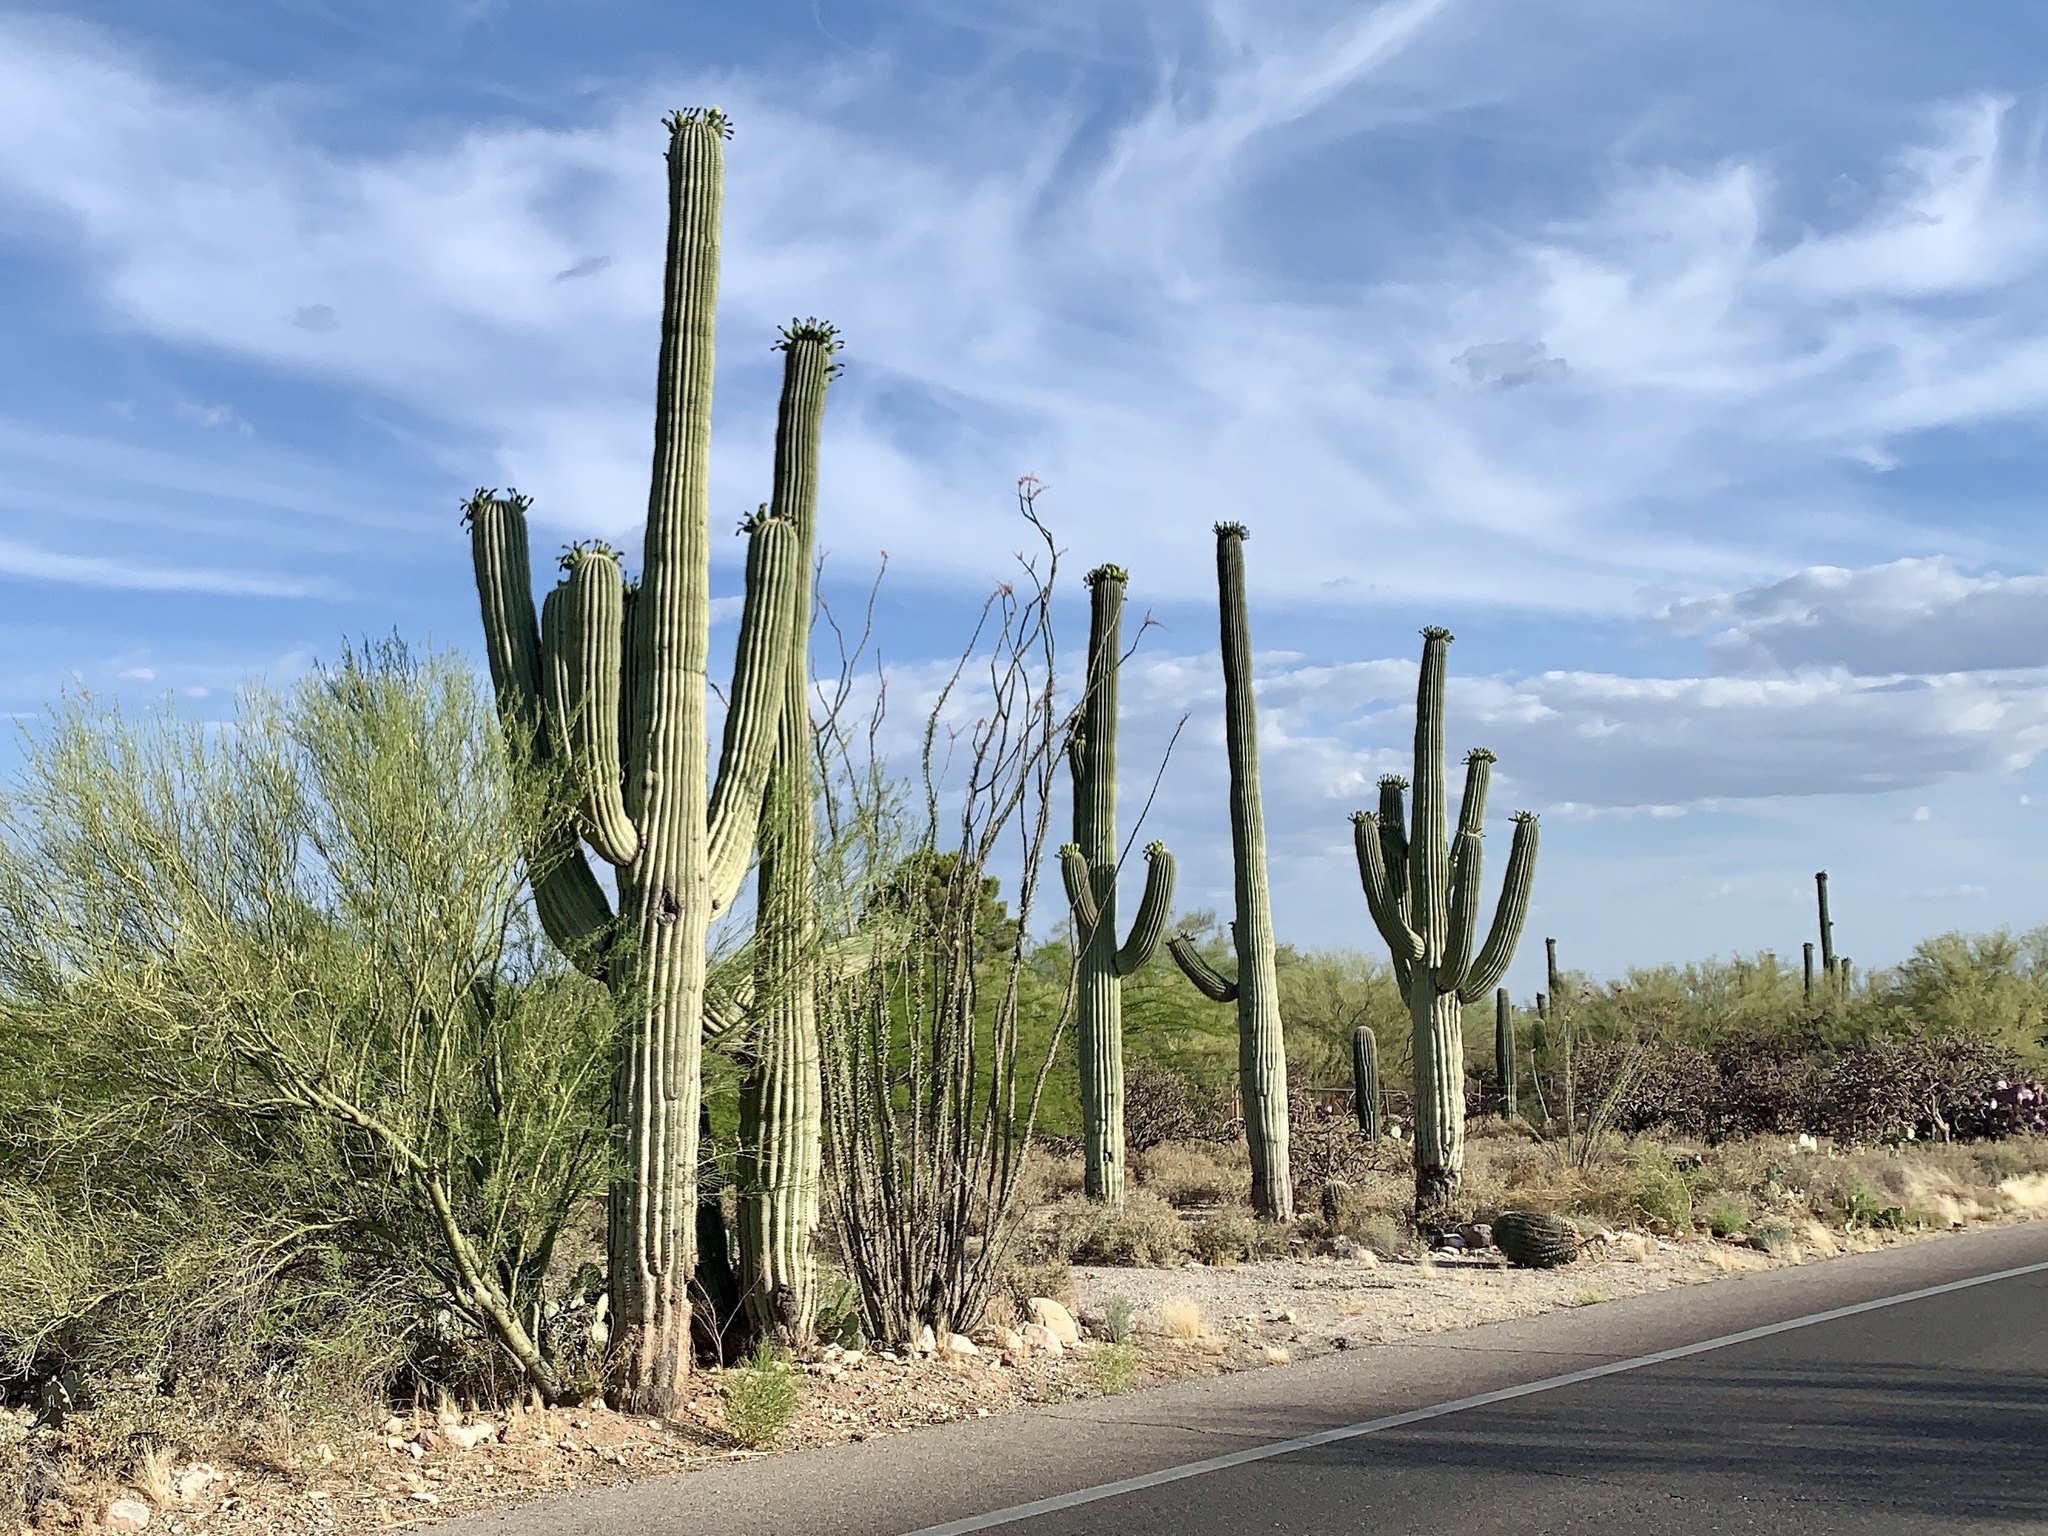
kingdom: Plantae
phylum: Tracheophyta
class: Magnoliopsida
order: Caryophyllales
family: Cactaceae
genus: Carnegiea
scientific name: Carnegiea gigantea
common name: Saguaro
